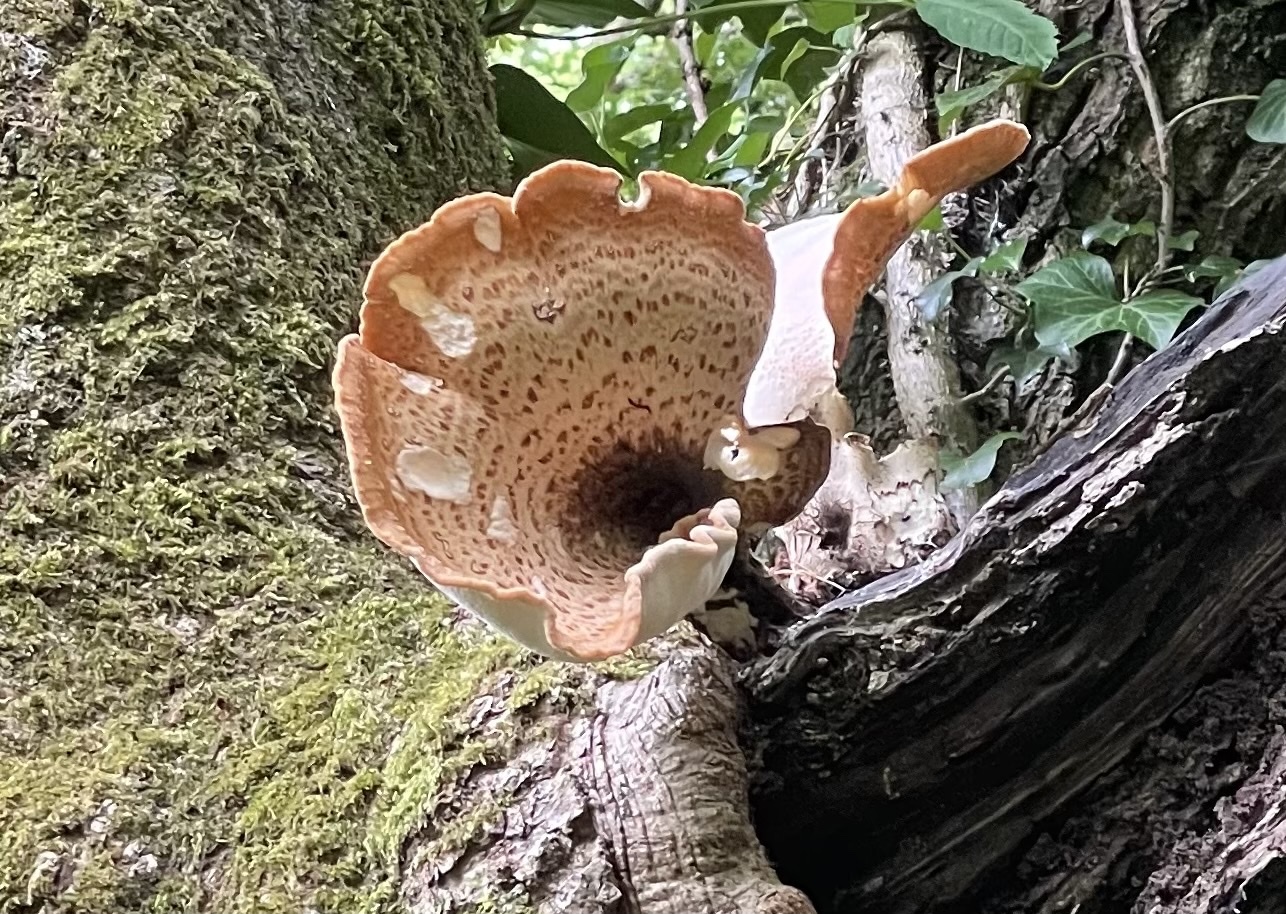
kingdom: Fungi
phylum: Basidiomycota
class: Agaricomycetes
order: Polyporales
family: Polyporaceae
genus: Cerioporus
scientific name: Cerioporus squamosus
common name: Dryad's saddle
